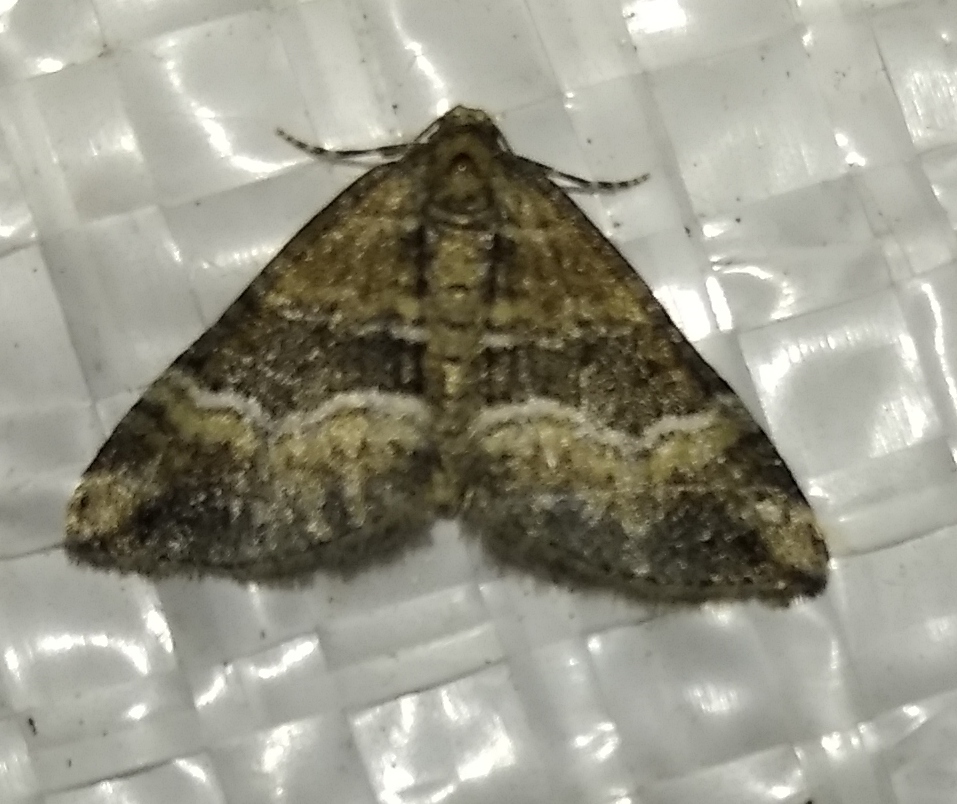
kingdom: Animalia
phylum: Arthropoda
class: Insecta
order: Lepidoptera
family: Geometridae
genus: Perizoma
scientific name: Perizoma bifaciata
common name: Barred rivulet
